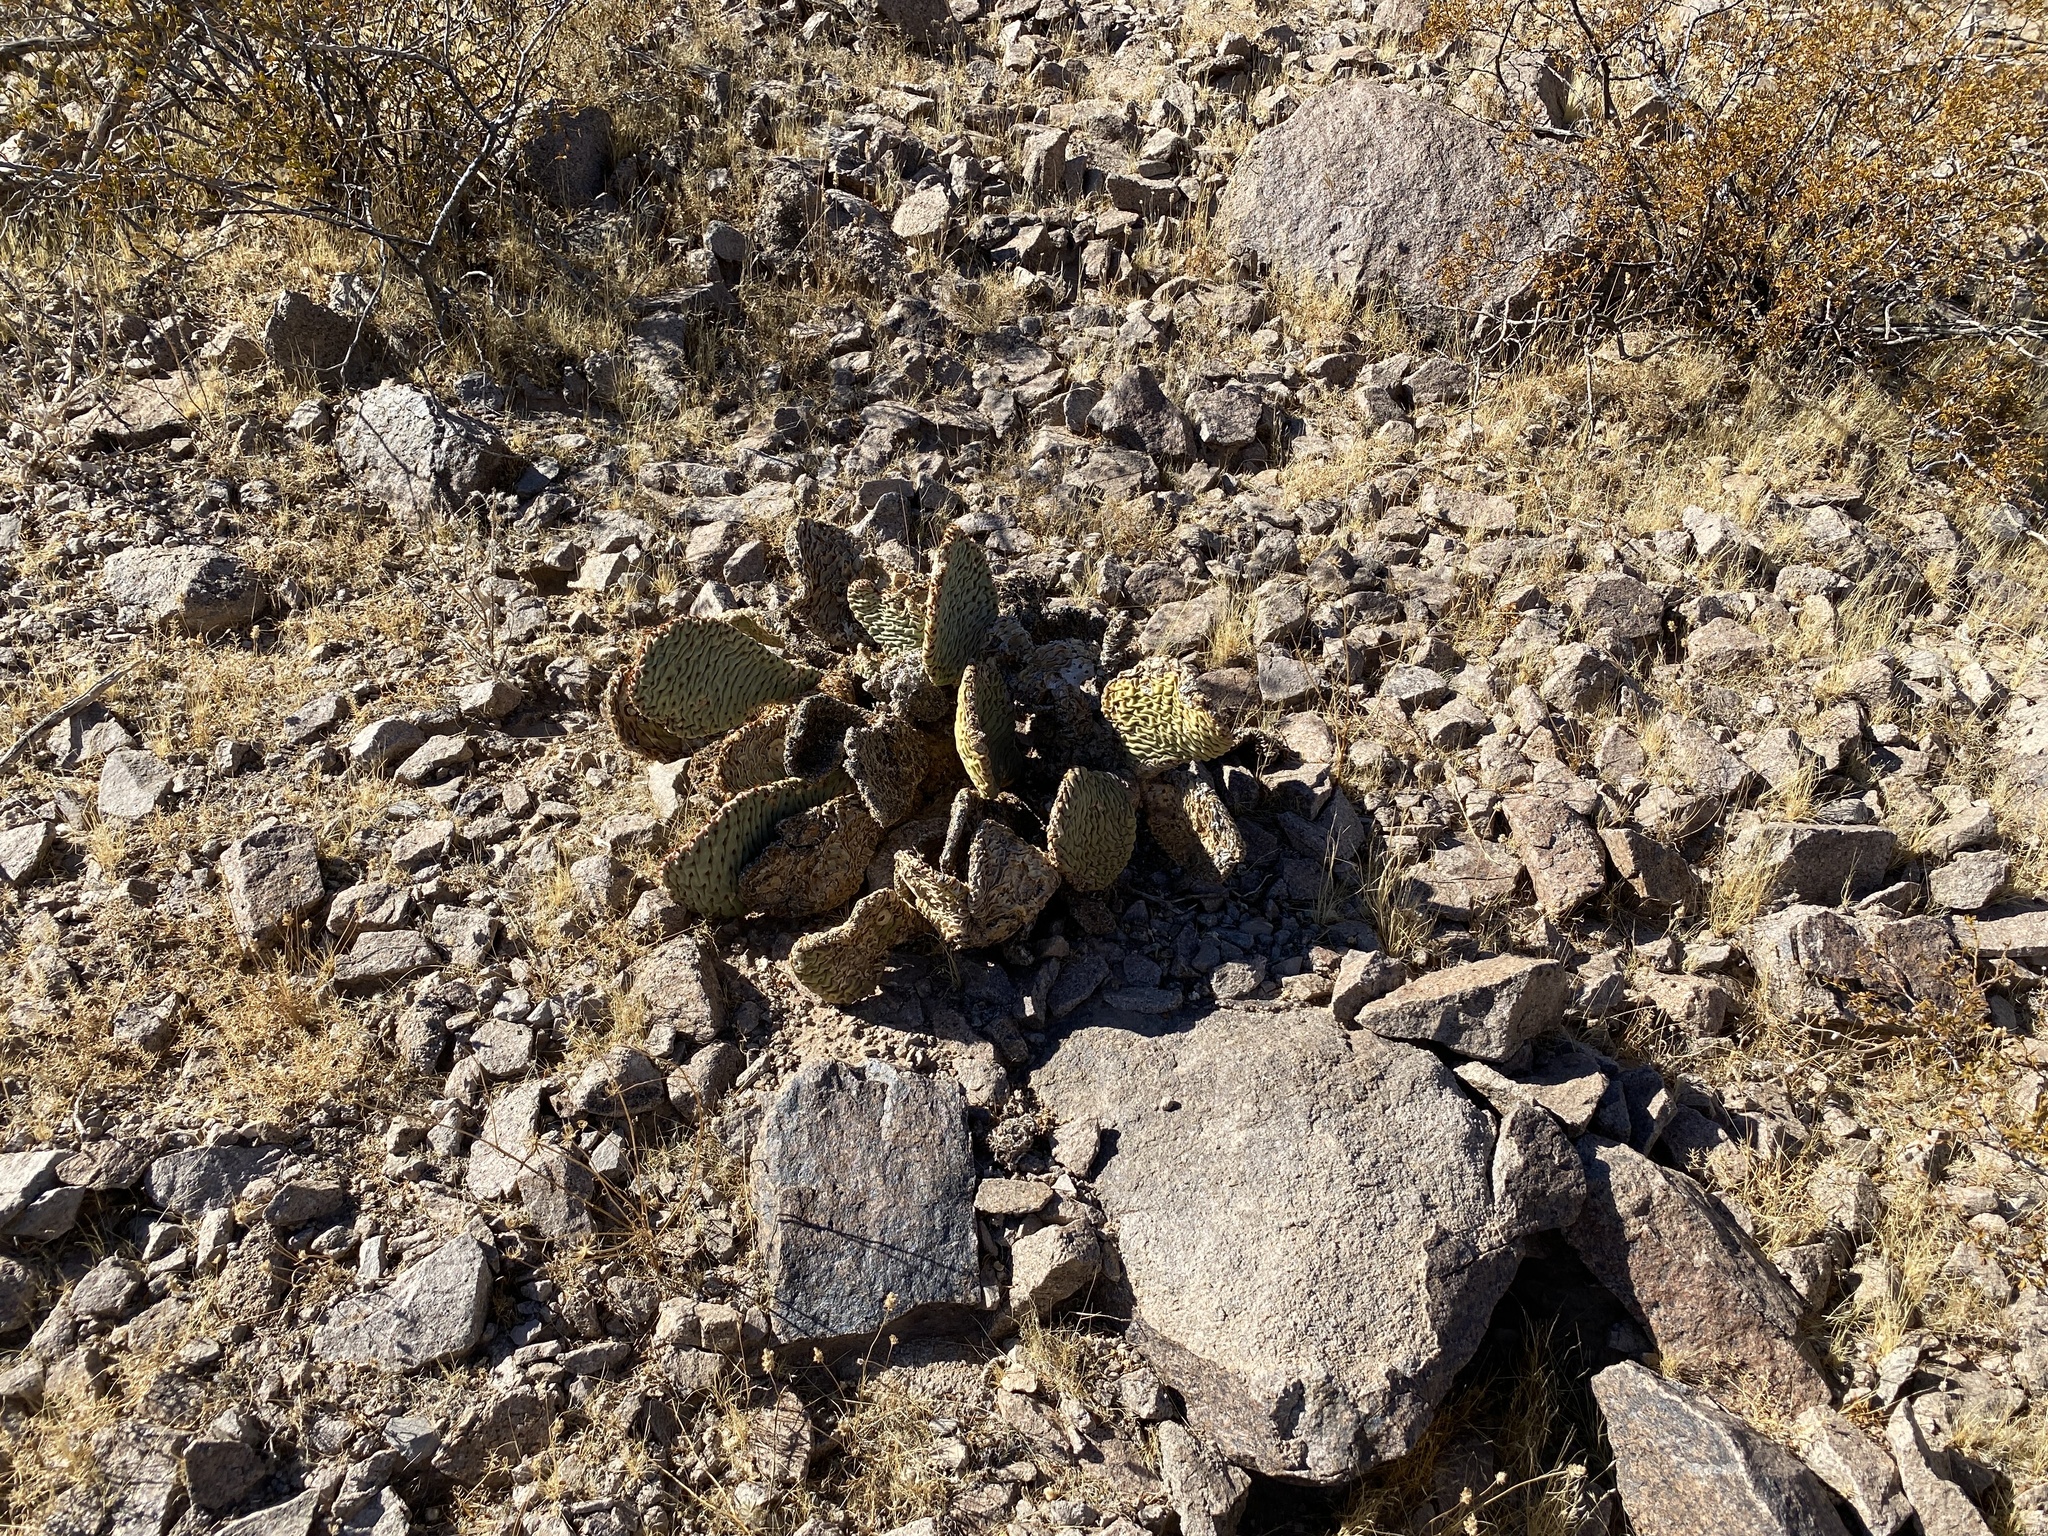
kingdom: Plantae
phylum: Tracheophyta
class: Magnoliopsida
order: Caryophyllales
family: Cactaceae
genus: Opuntia
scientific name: Opuntia basilaris
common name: Beavertail prickly-pear
